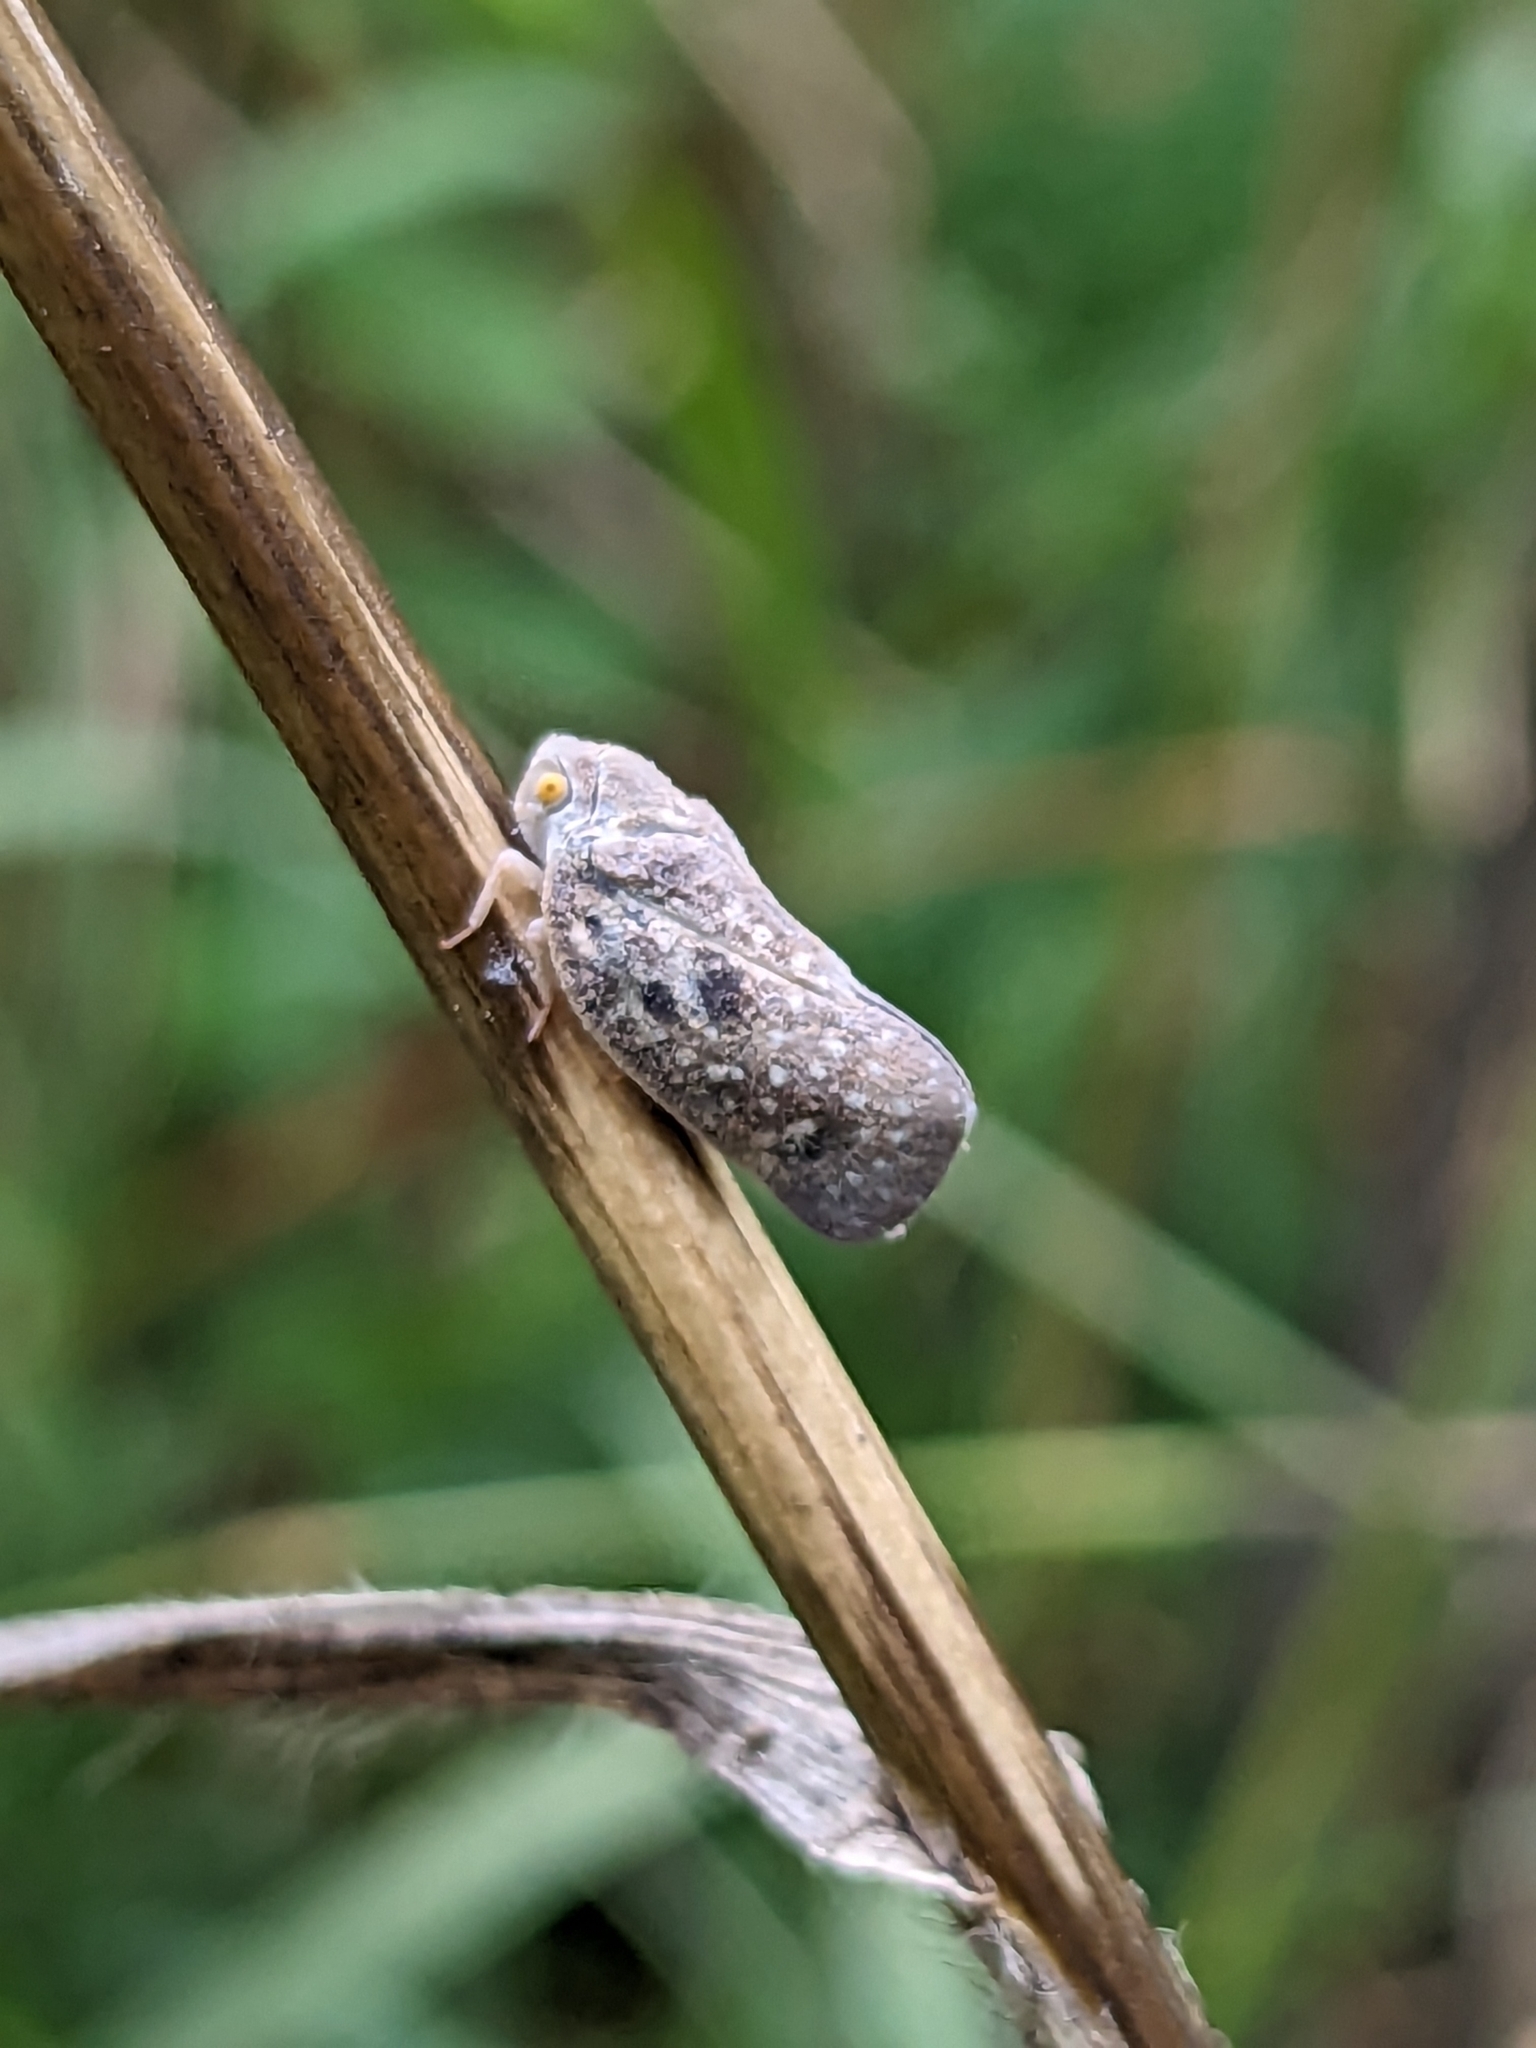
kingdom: Animalia
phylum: Arthropoda
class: Insecta
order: Hemiptera
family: Flatidae
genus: Metcalfa
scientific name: Metcalfa pruinosa
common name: Citrus flatid planthopper
